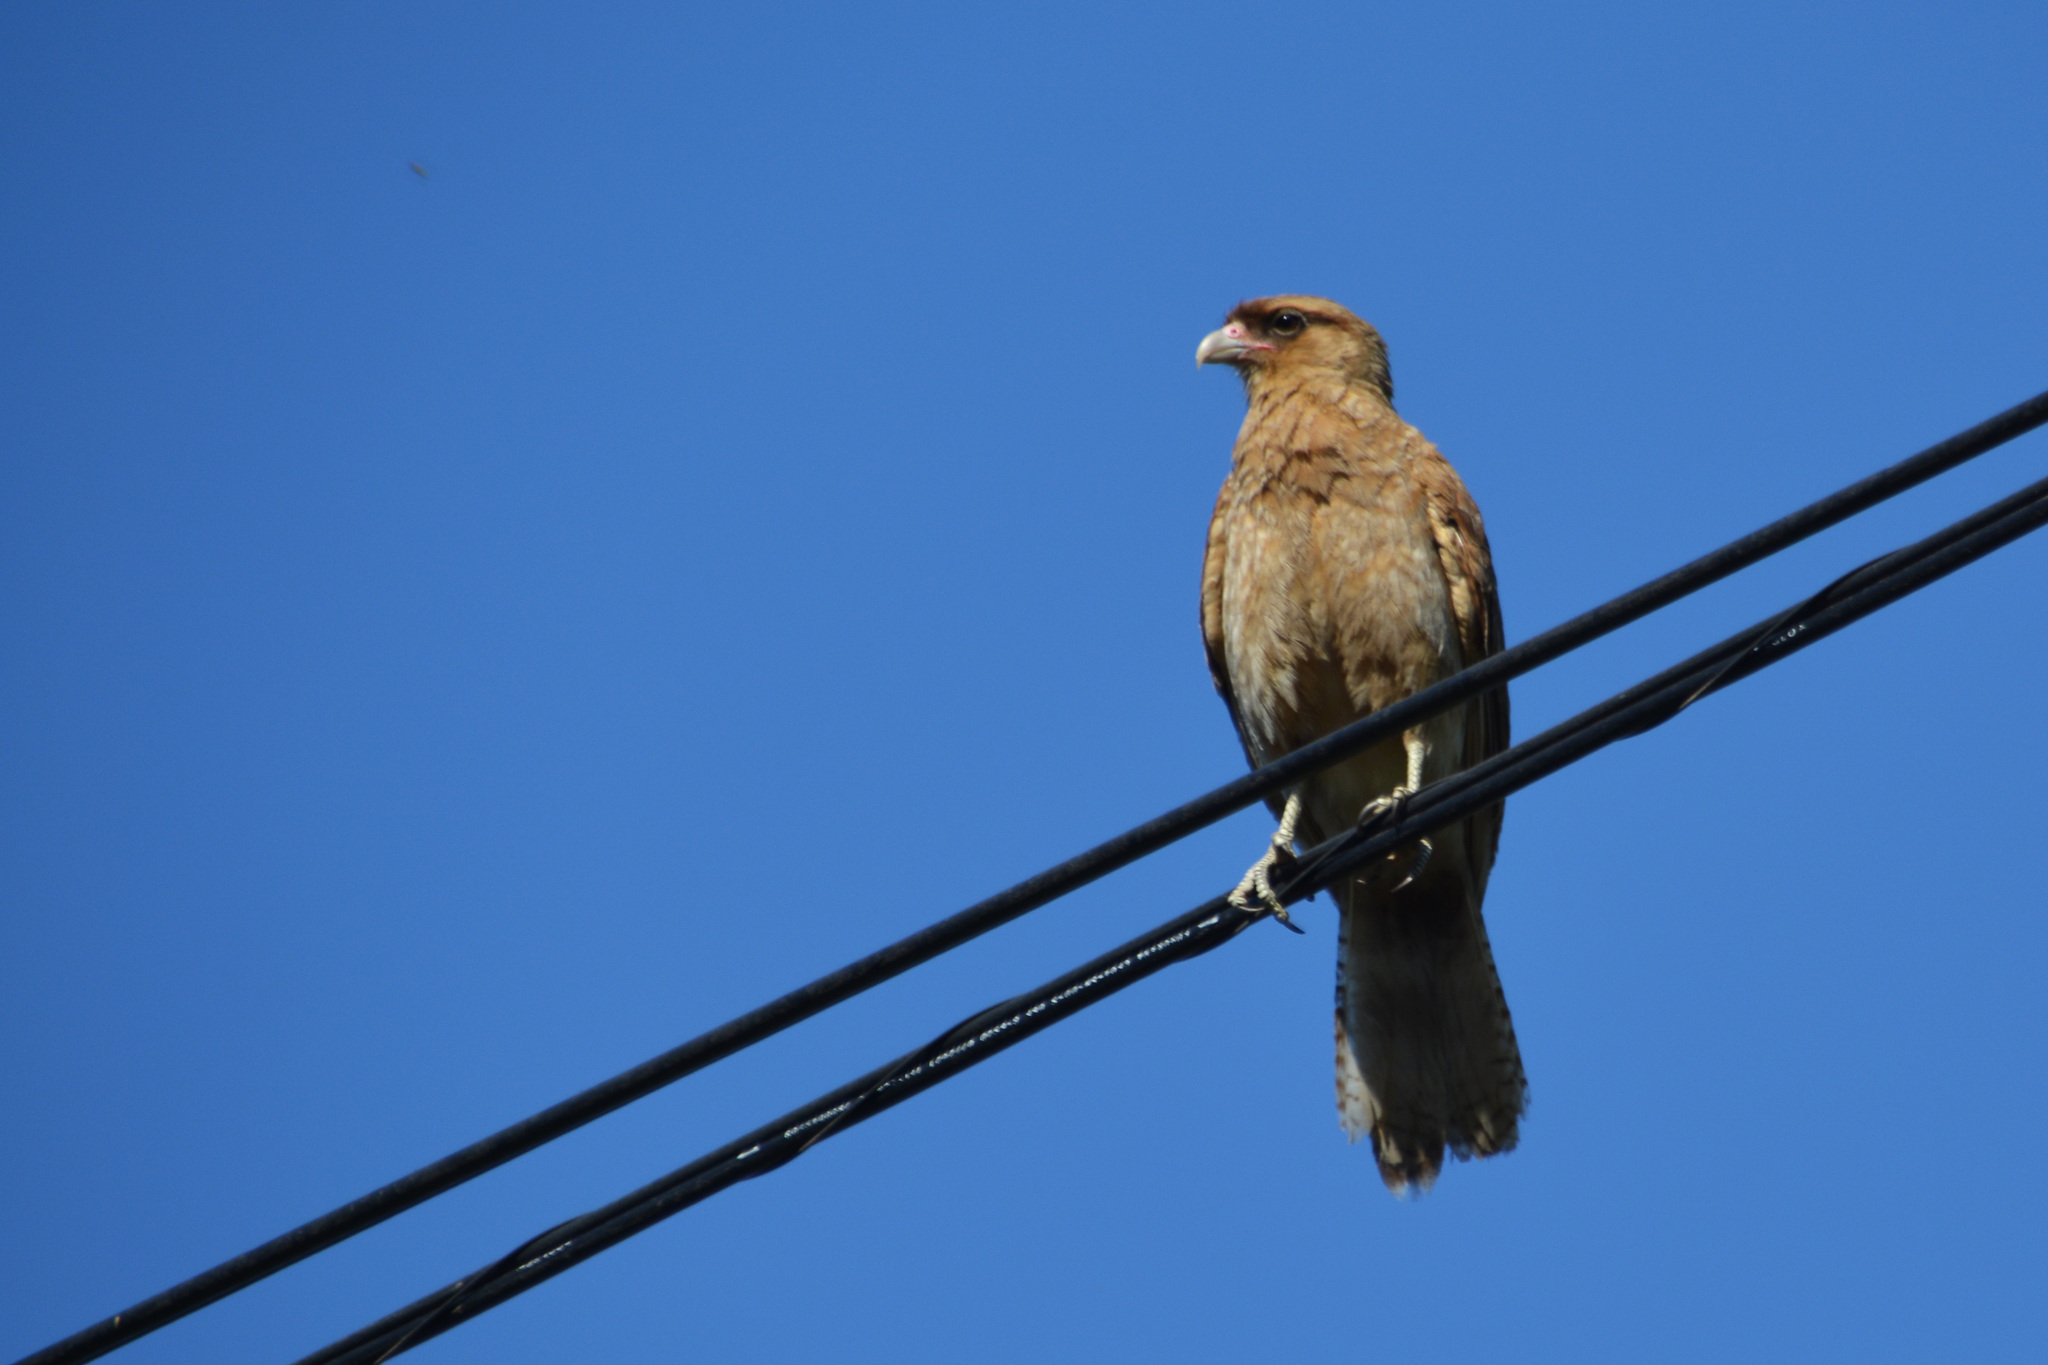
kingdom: Animalia
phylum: Chordata
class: Aves
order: Falconiformes
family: Falconidae
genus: Daptrius
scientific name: Daptrius
